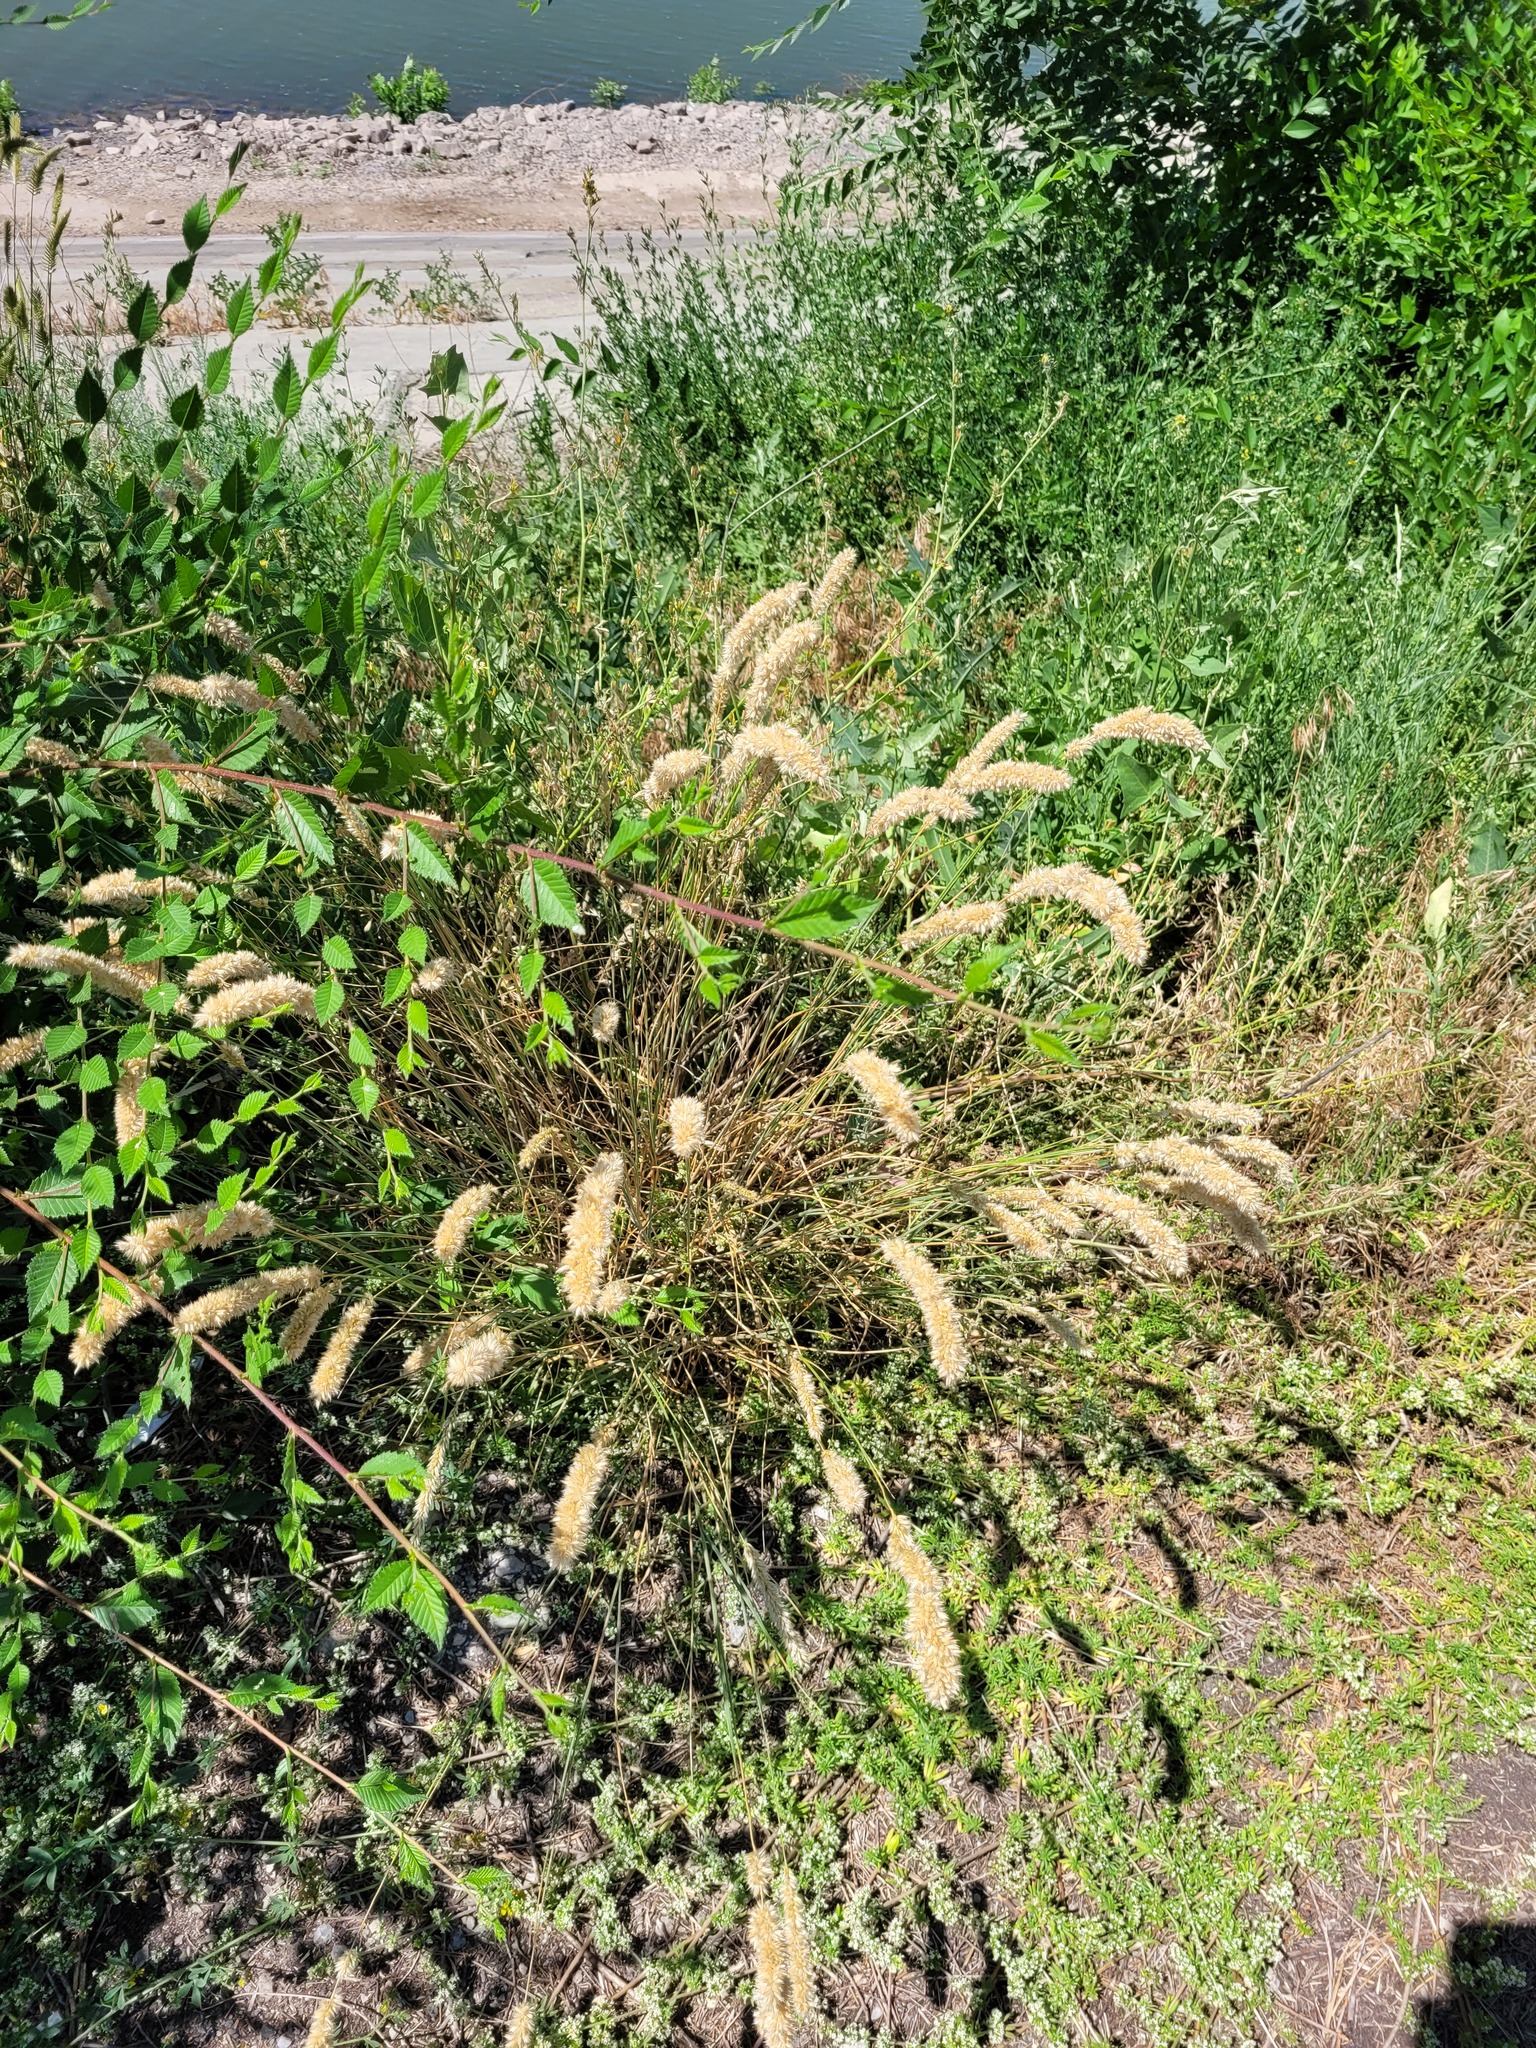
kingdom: Plantae
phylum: Tracheophyta
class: Liliopsida
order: Poales
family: Poaceae
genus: Melica
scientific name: Melica transsilvanica
